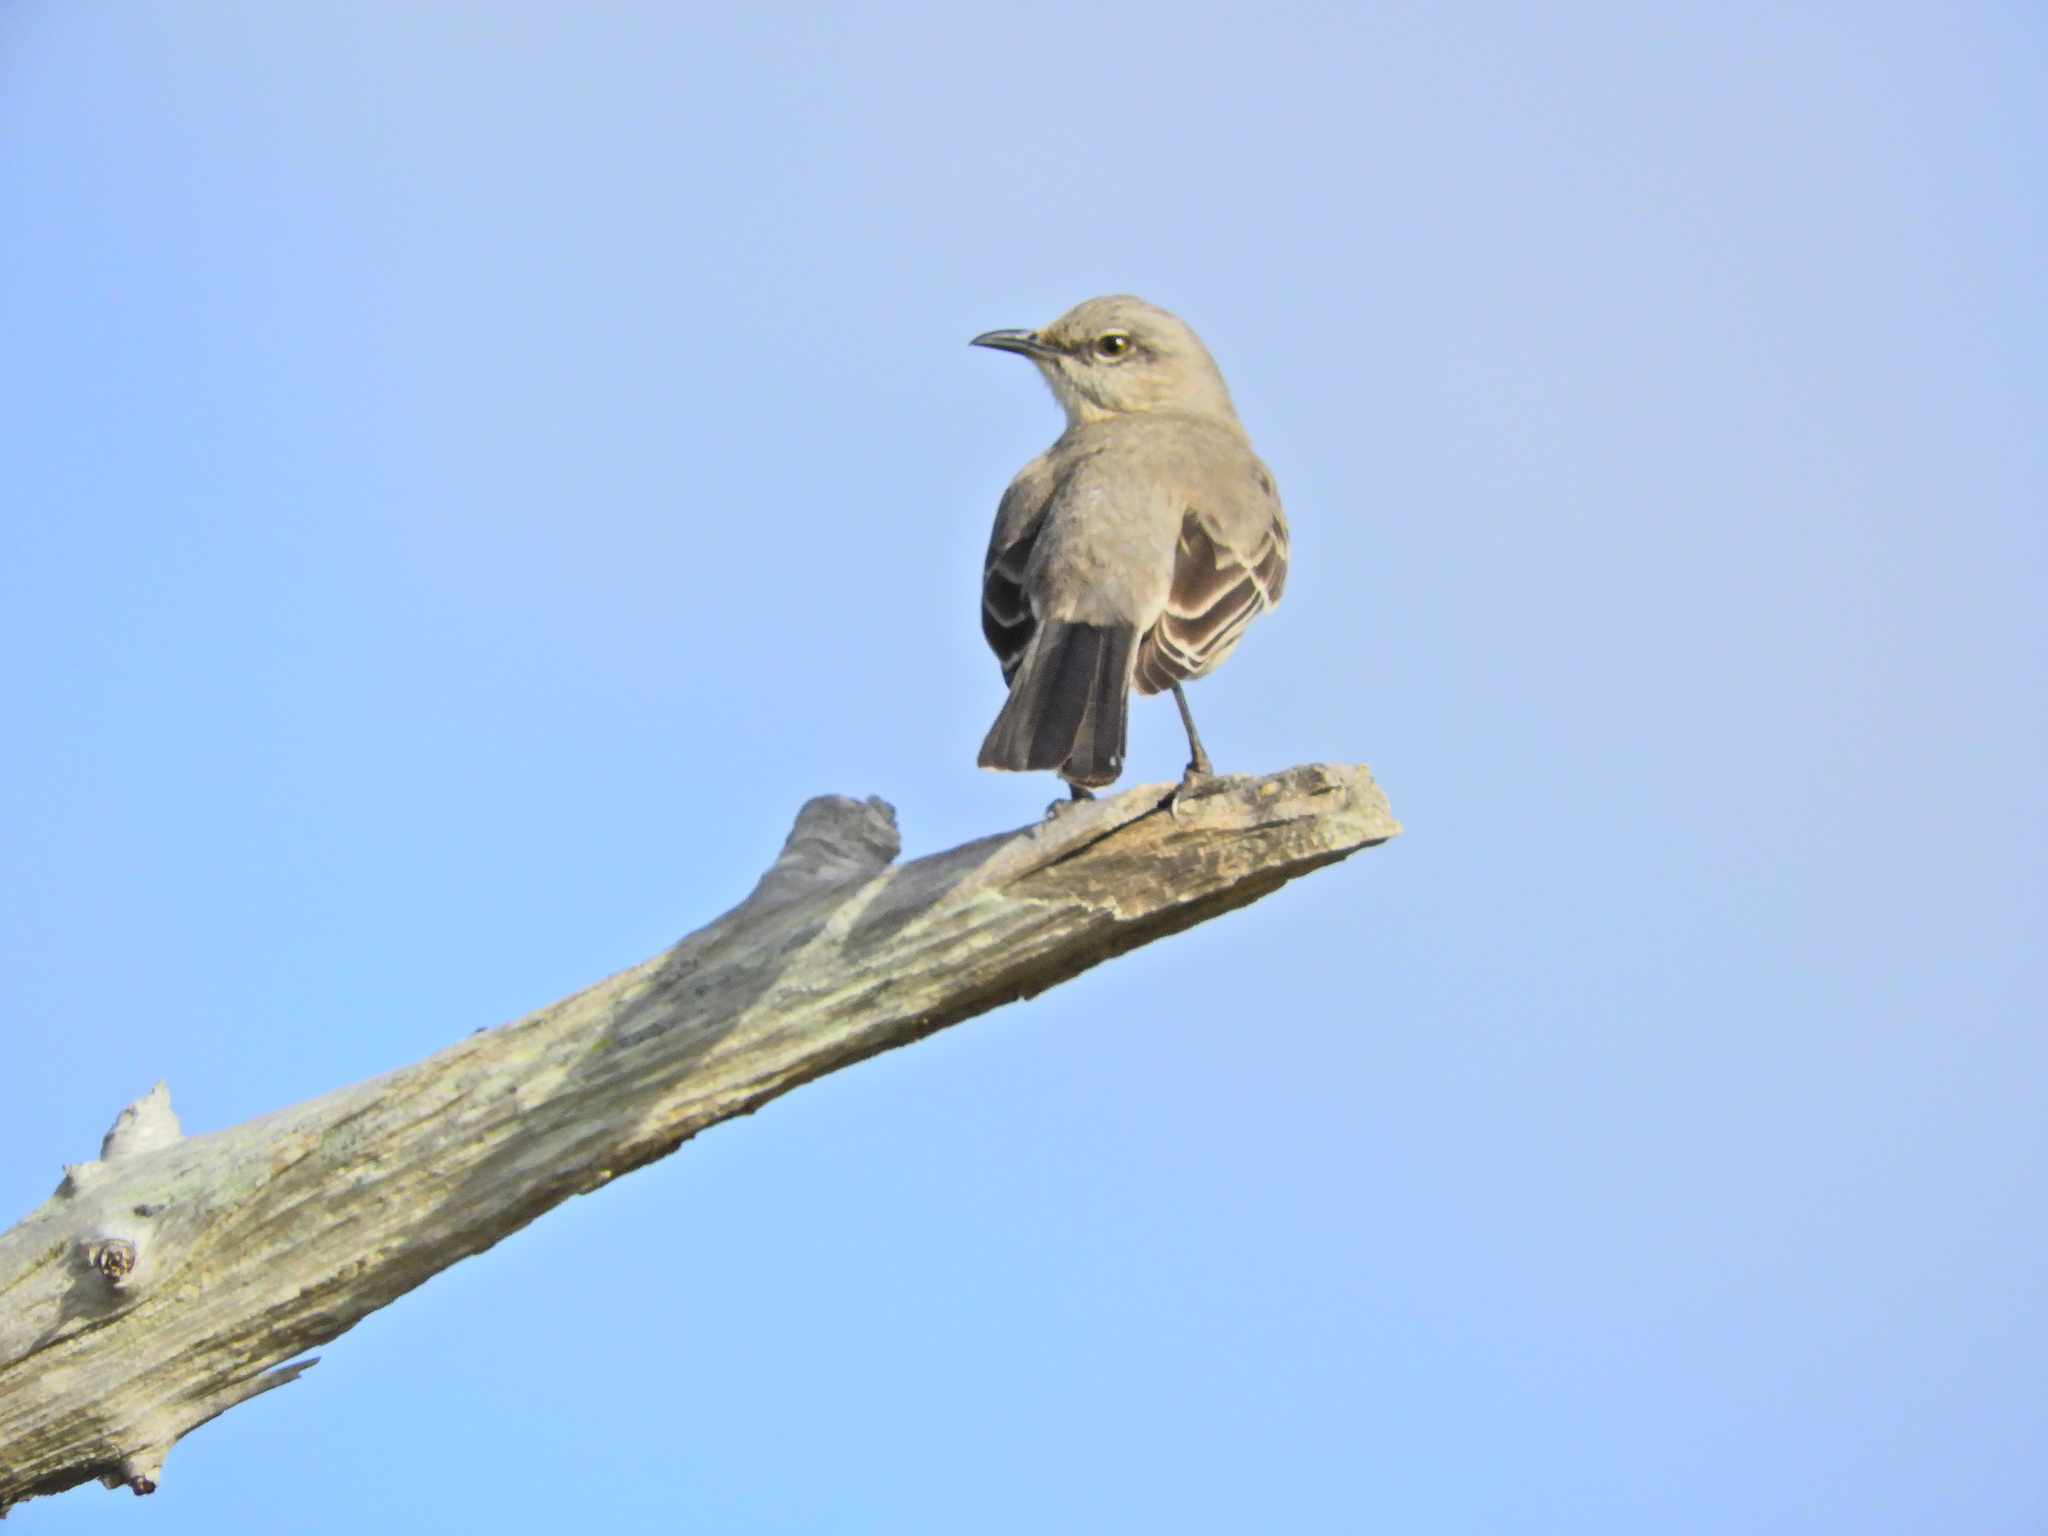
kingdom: Animalia
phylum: Chordata
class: Aves
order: Passeriformes
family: Mimidae
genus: Mimus
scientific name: Mimus polyglottos
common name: Northern mockingbird
